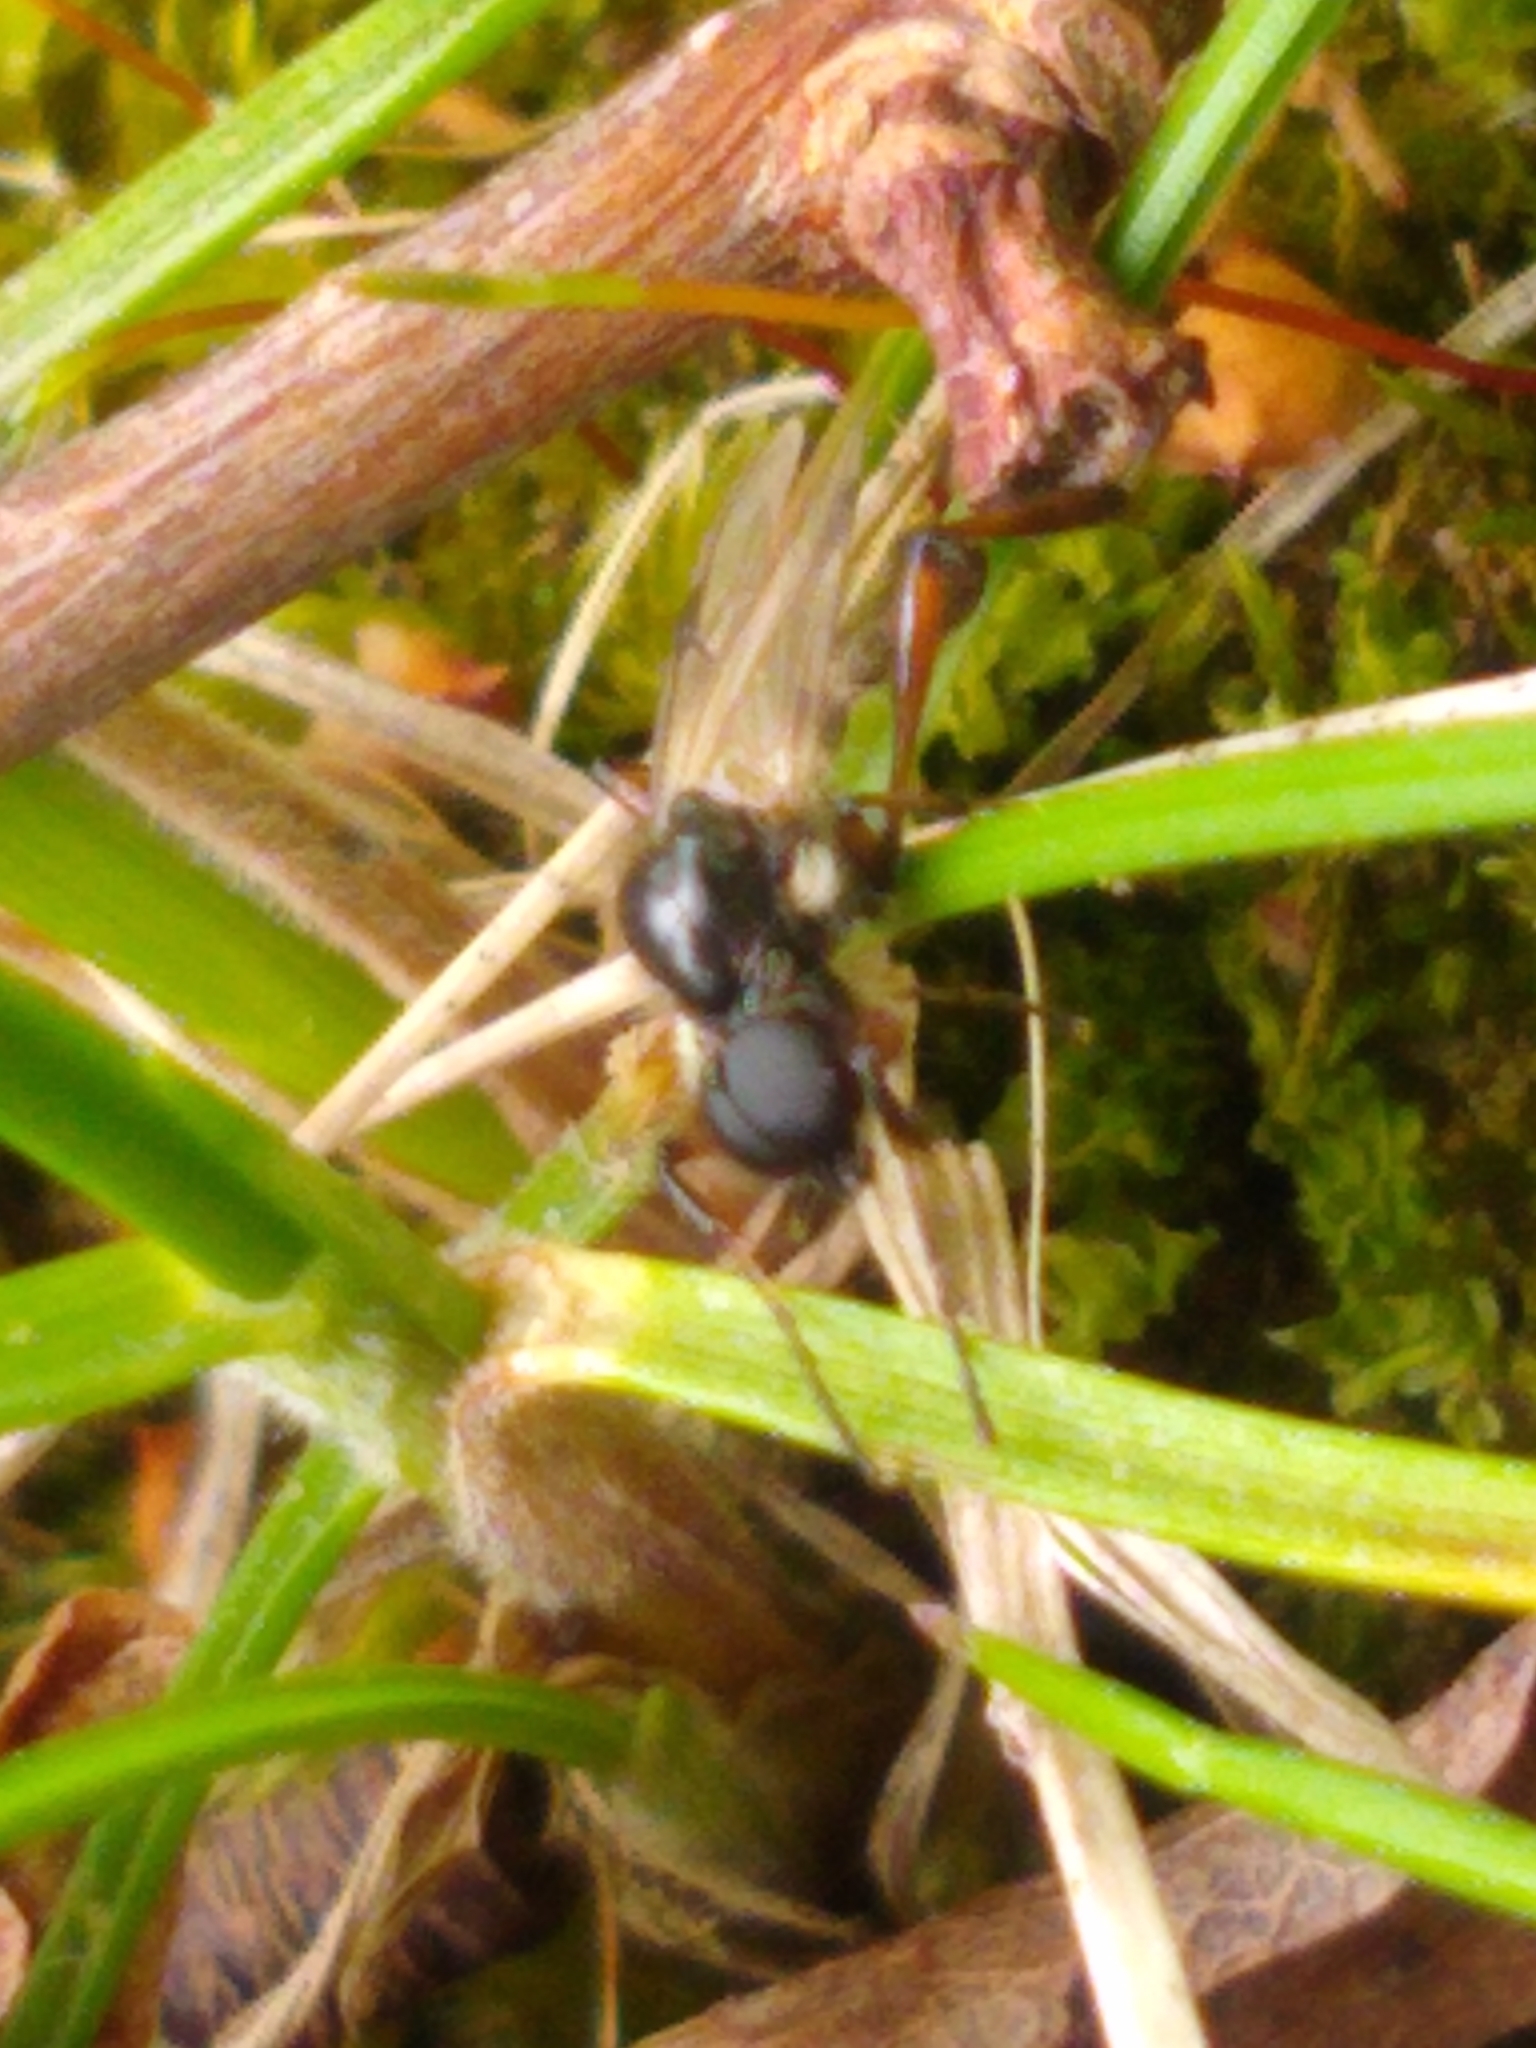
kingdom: Animalia
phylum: Arthropoda
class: Insecta
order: Diptera
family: Bibionidae
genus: Bibio
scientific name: Bibio
